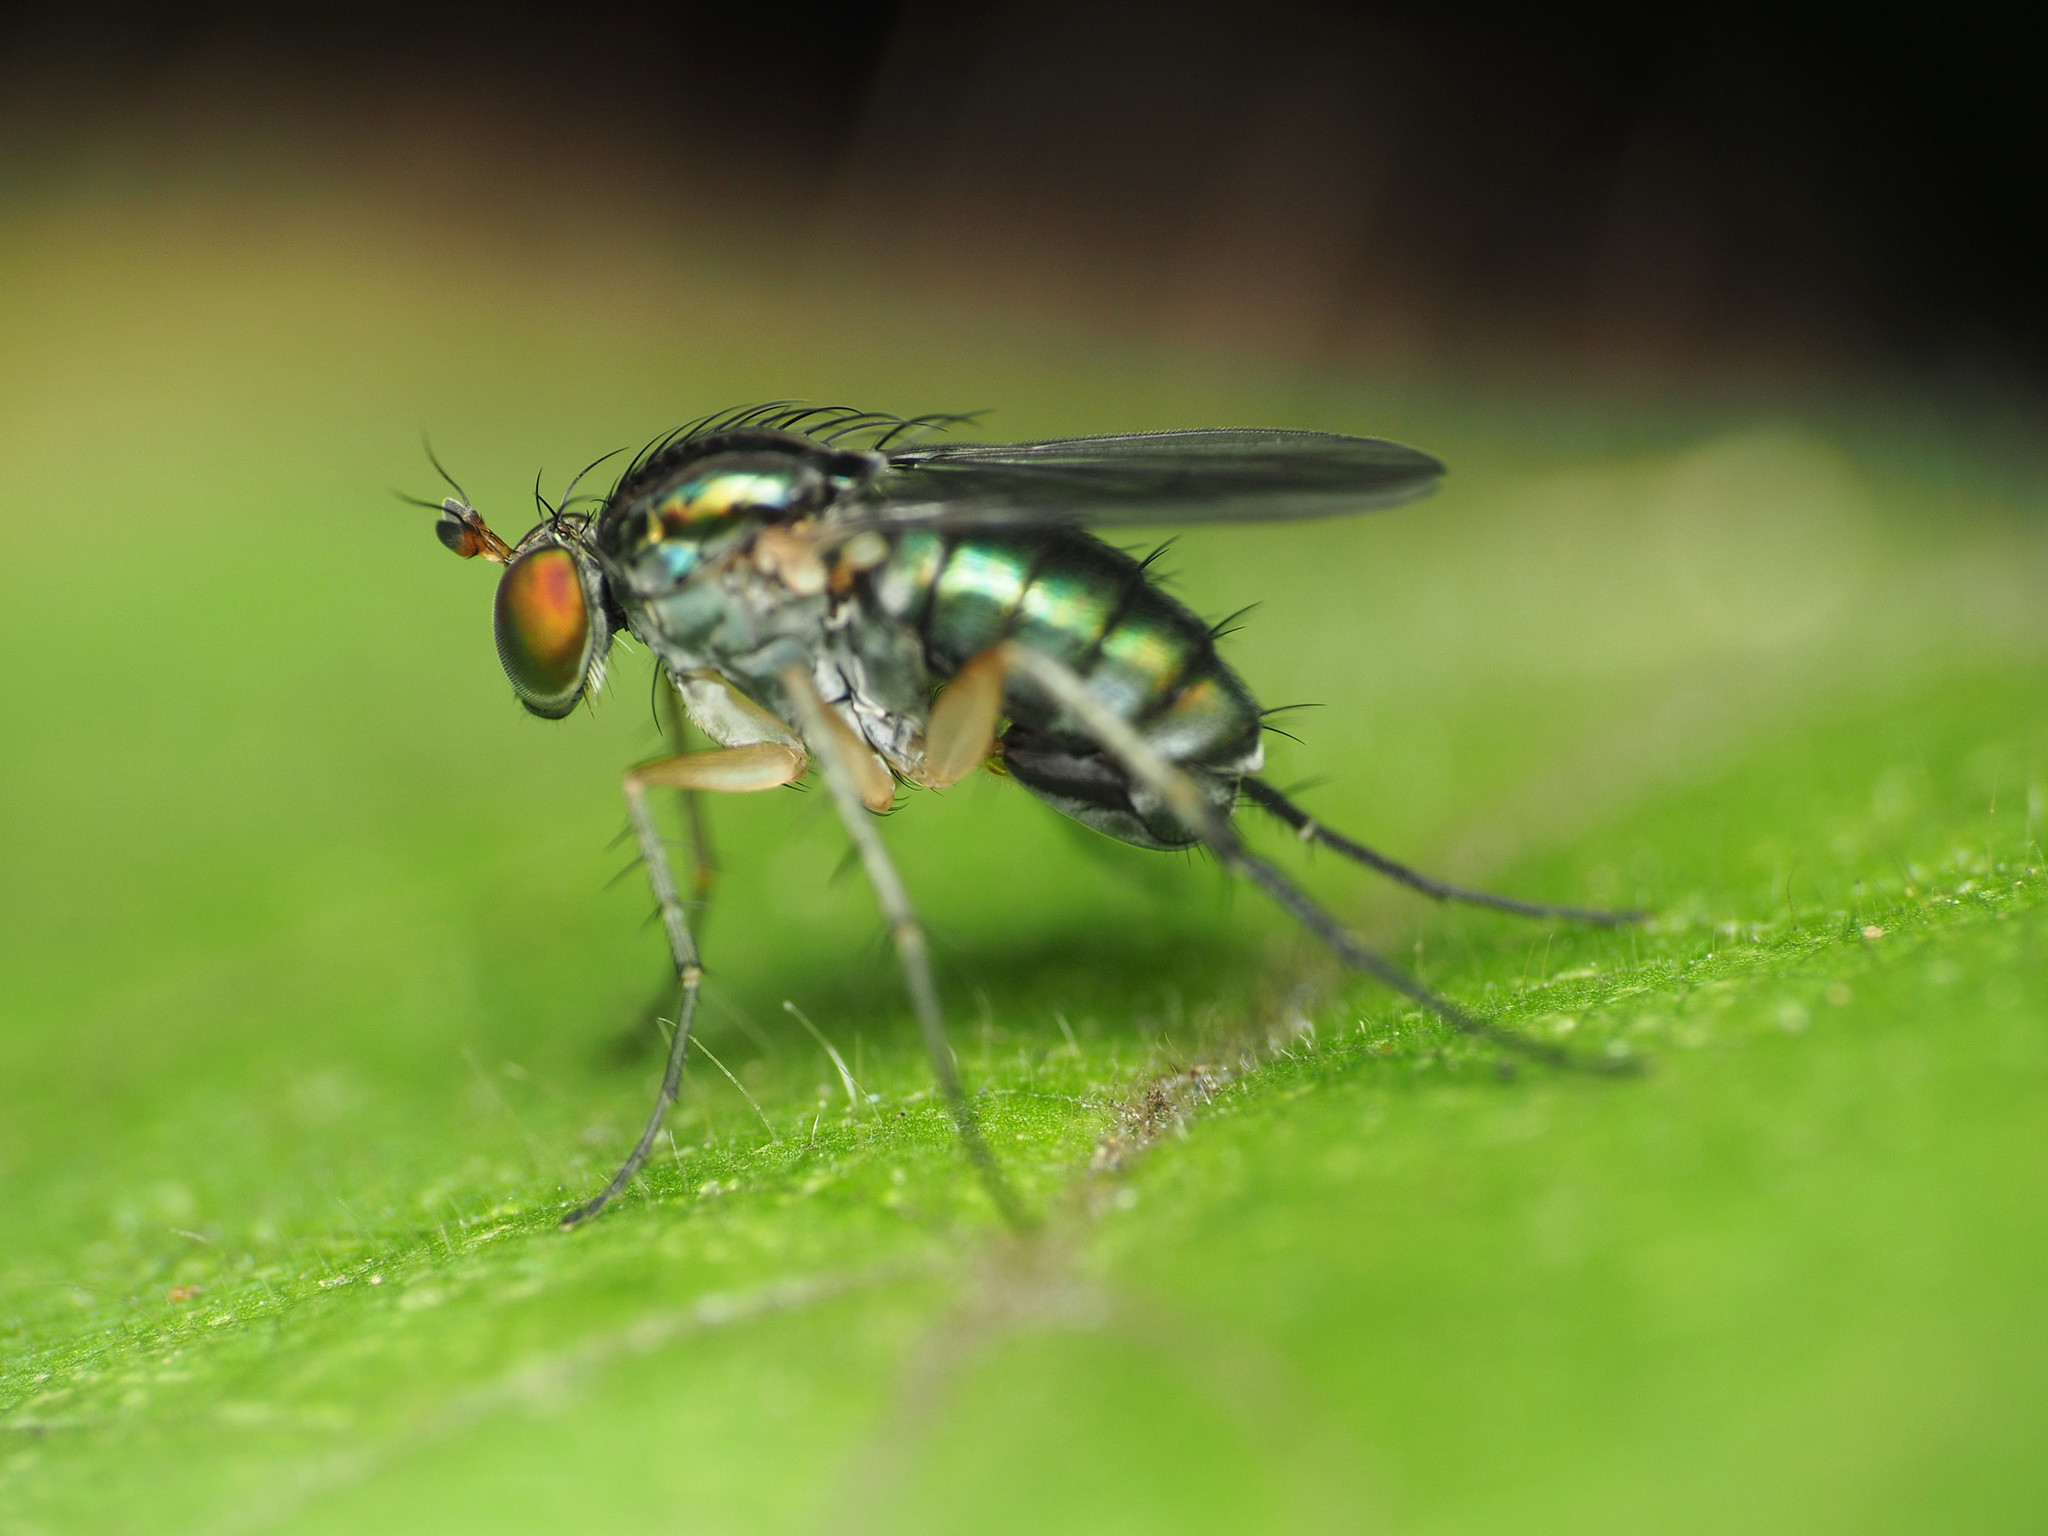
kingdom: Animalia
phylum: Arthropoda
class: Insecta
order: Diptera
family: Dolichopodidae
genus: Dolichopus
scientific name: Dolichopus
